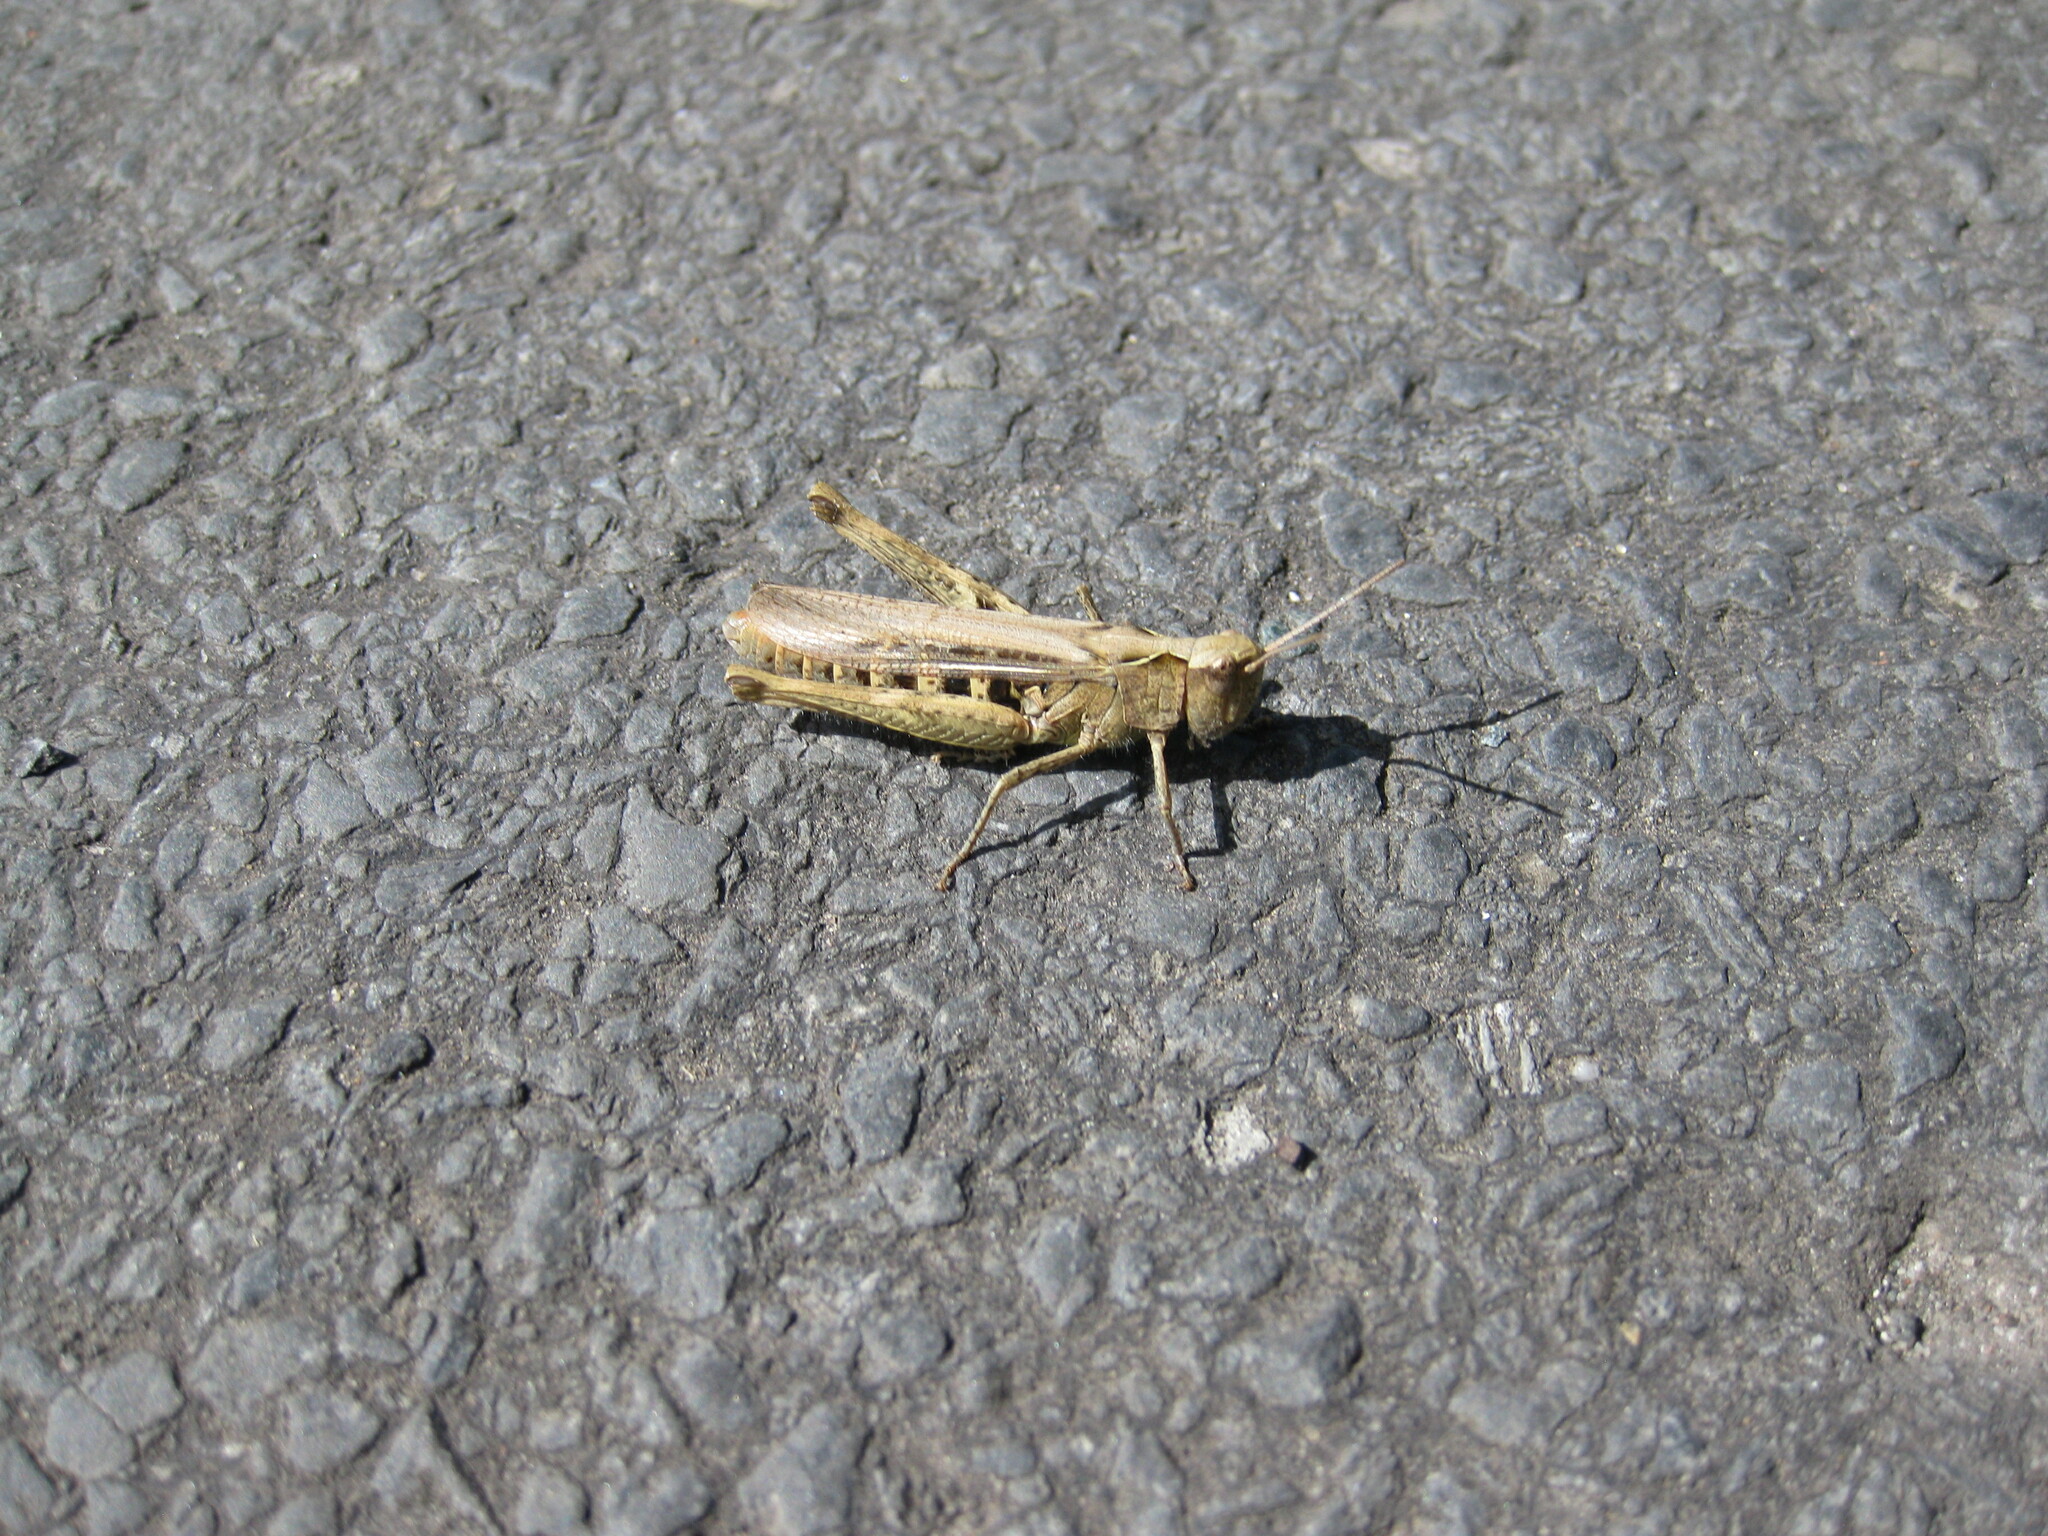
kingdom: Animalia
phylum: Arthropoda
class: Insecta
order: Orthoptera
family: Acrididae
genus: Chorthippus
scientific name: Chorthippus brunneus
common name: Field grasshopper
